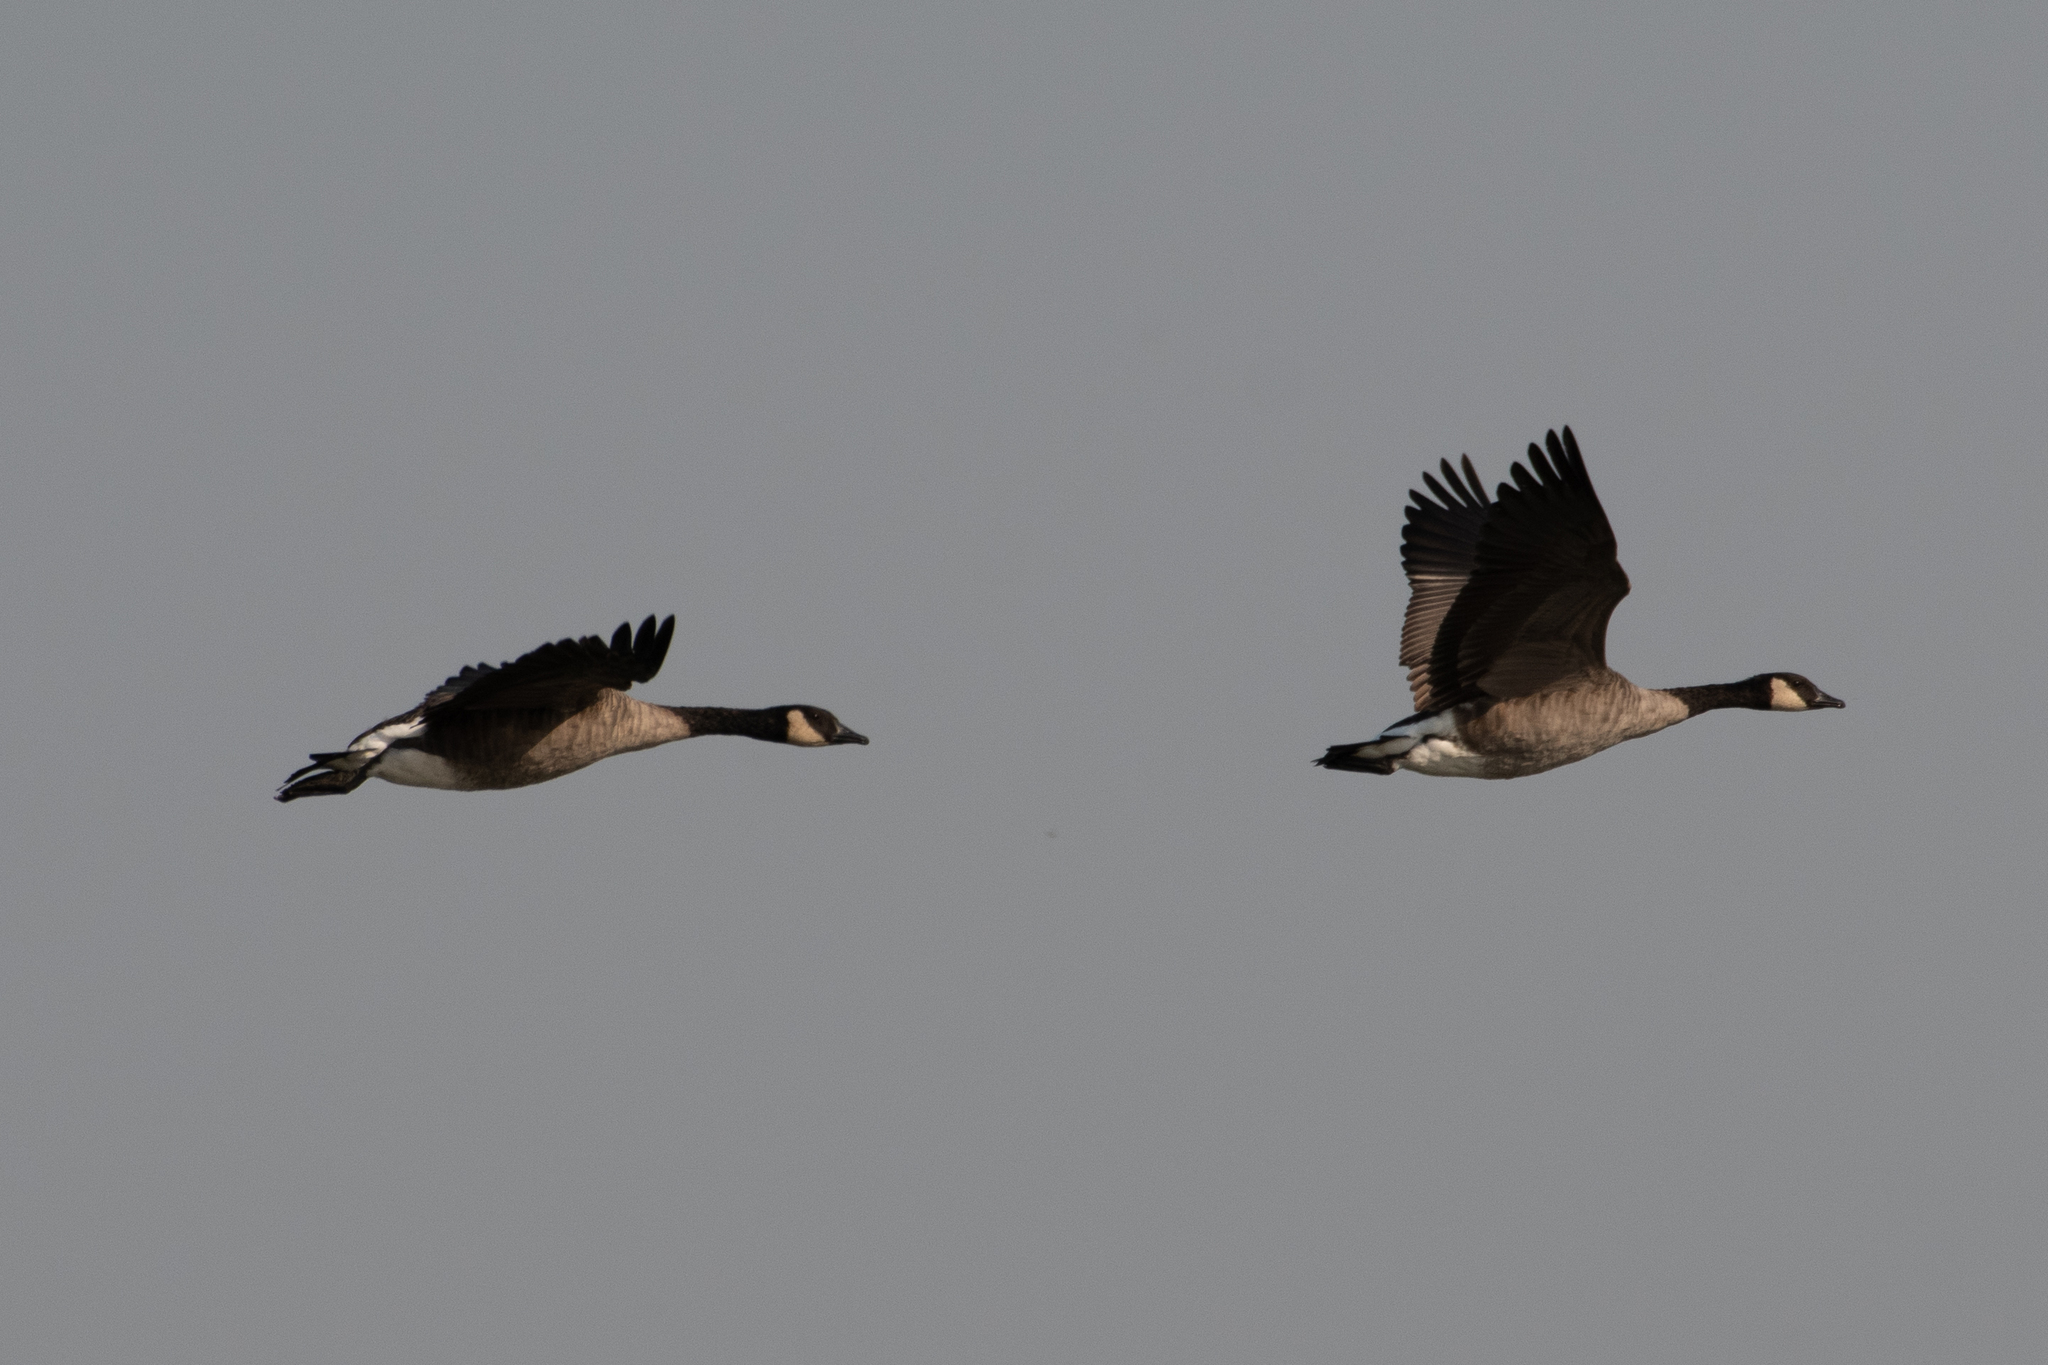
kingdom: Animalia
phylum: Chordata
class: Aves
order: Anseriformes
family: Anatidae
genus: Branta
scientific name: Branta canadensis
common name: Canada goose
